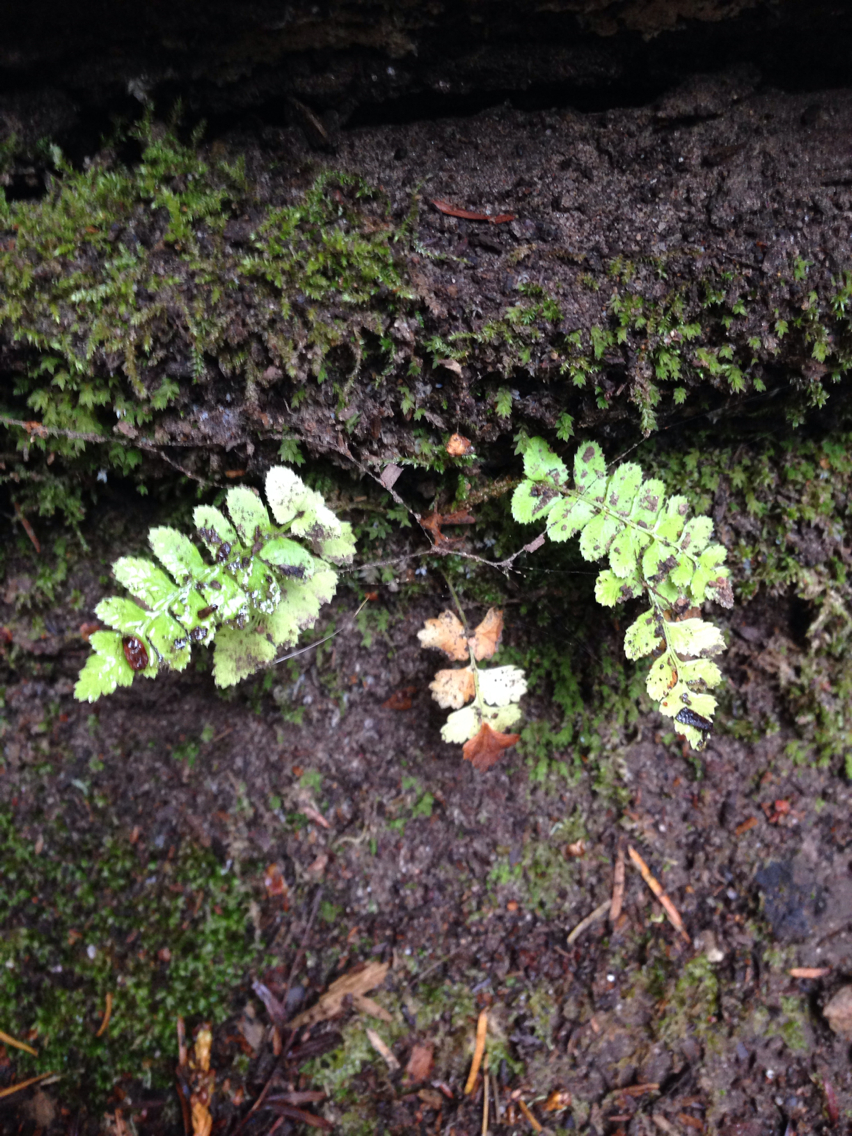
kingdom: Plantae
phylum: Tracheophyta
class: Polypodiopsida
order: Polypodiales
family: Dryopteridaceae
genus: Polystichum
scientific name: Polystichum munitum
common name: Western sword-fern
